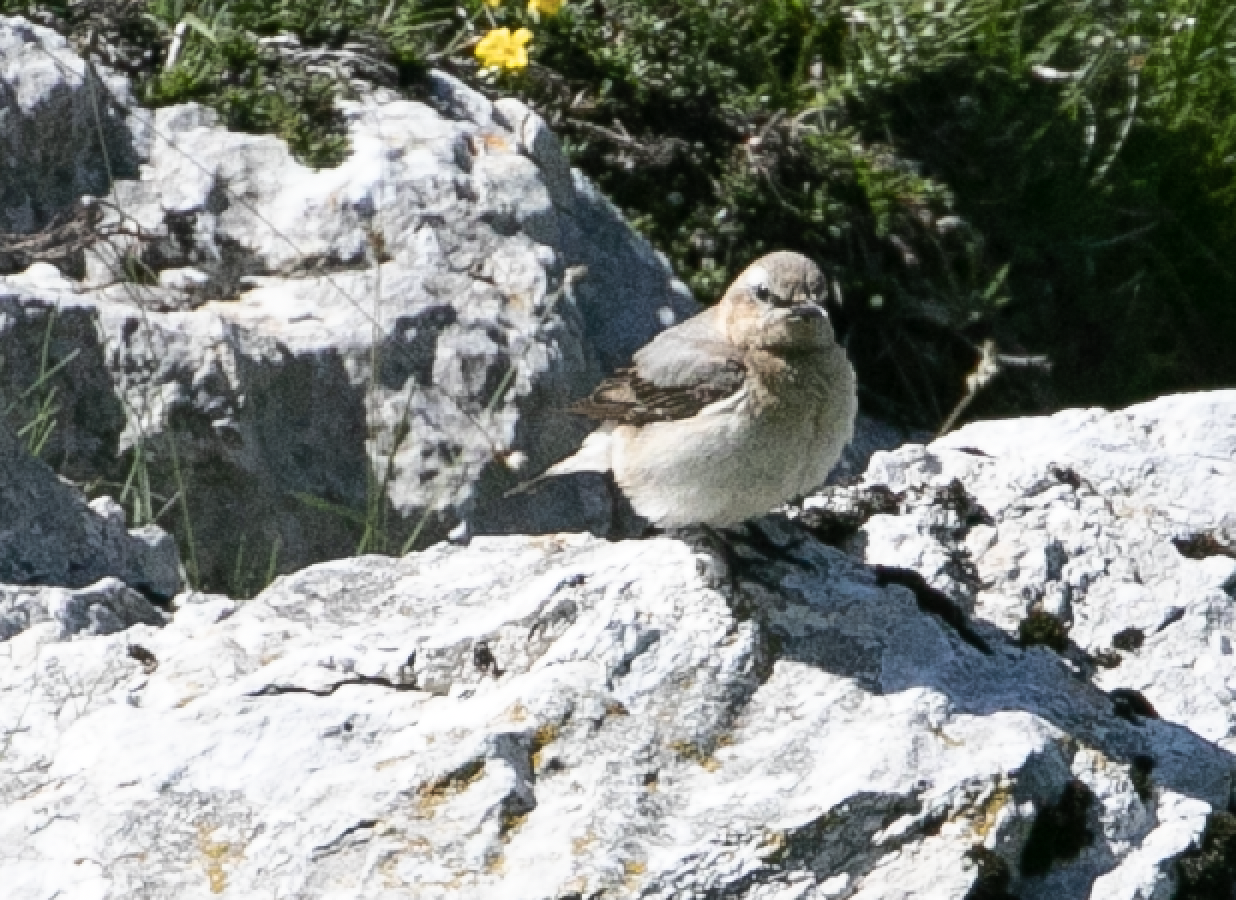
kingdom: Animalia
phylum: Chordata
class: Aves
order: Passeriformes
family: Muscicapidae
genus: Oenanthe
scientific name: Oenanthe oenanthe
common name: Northern wheatear
